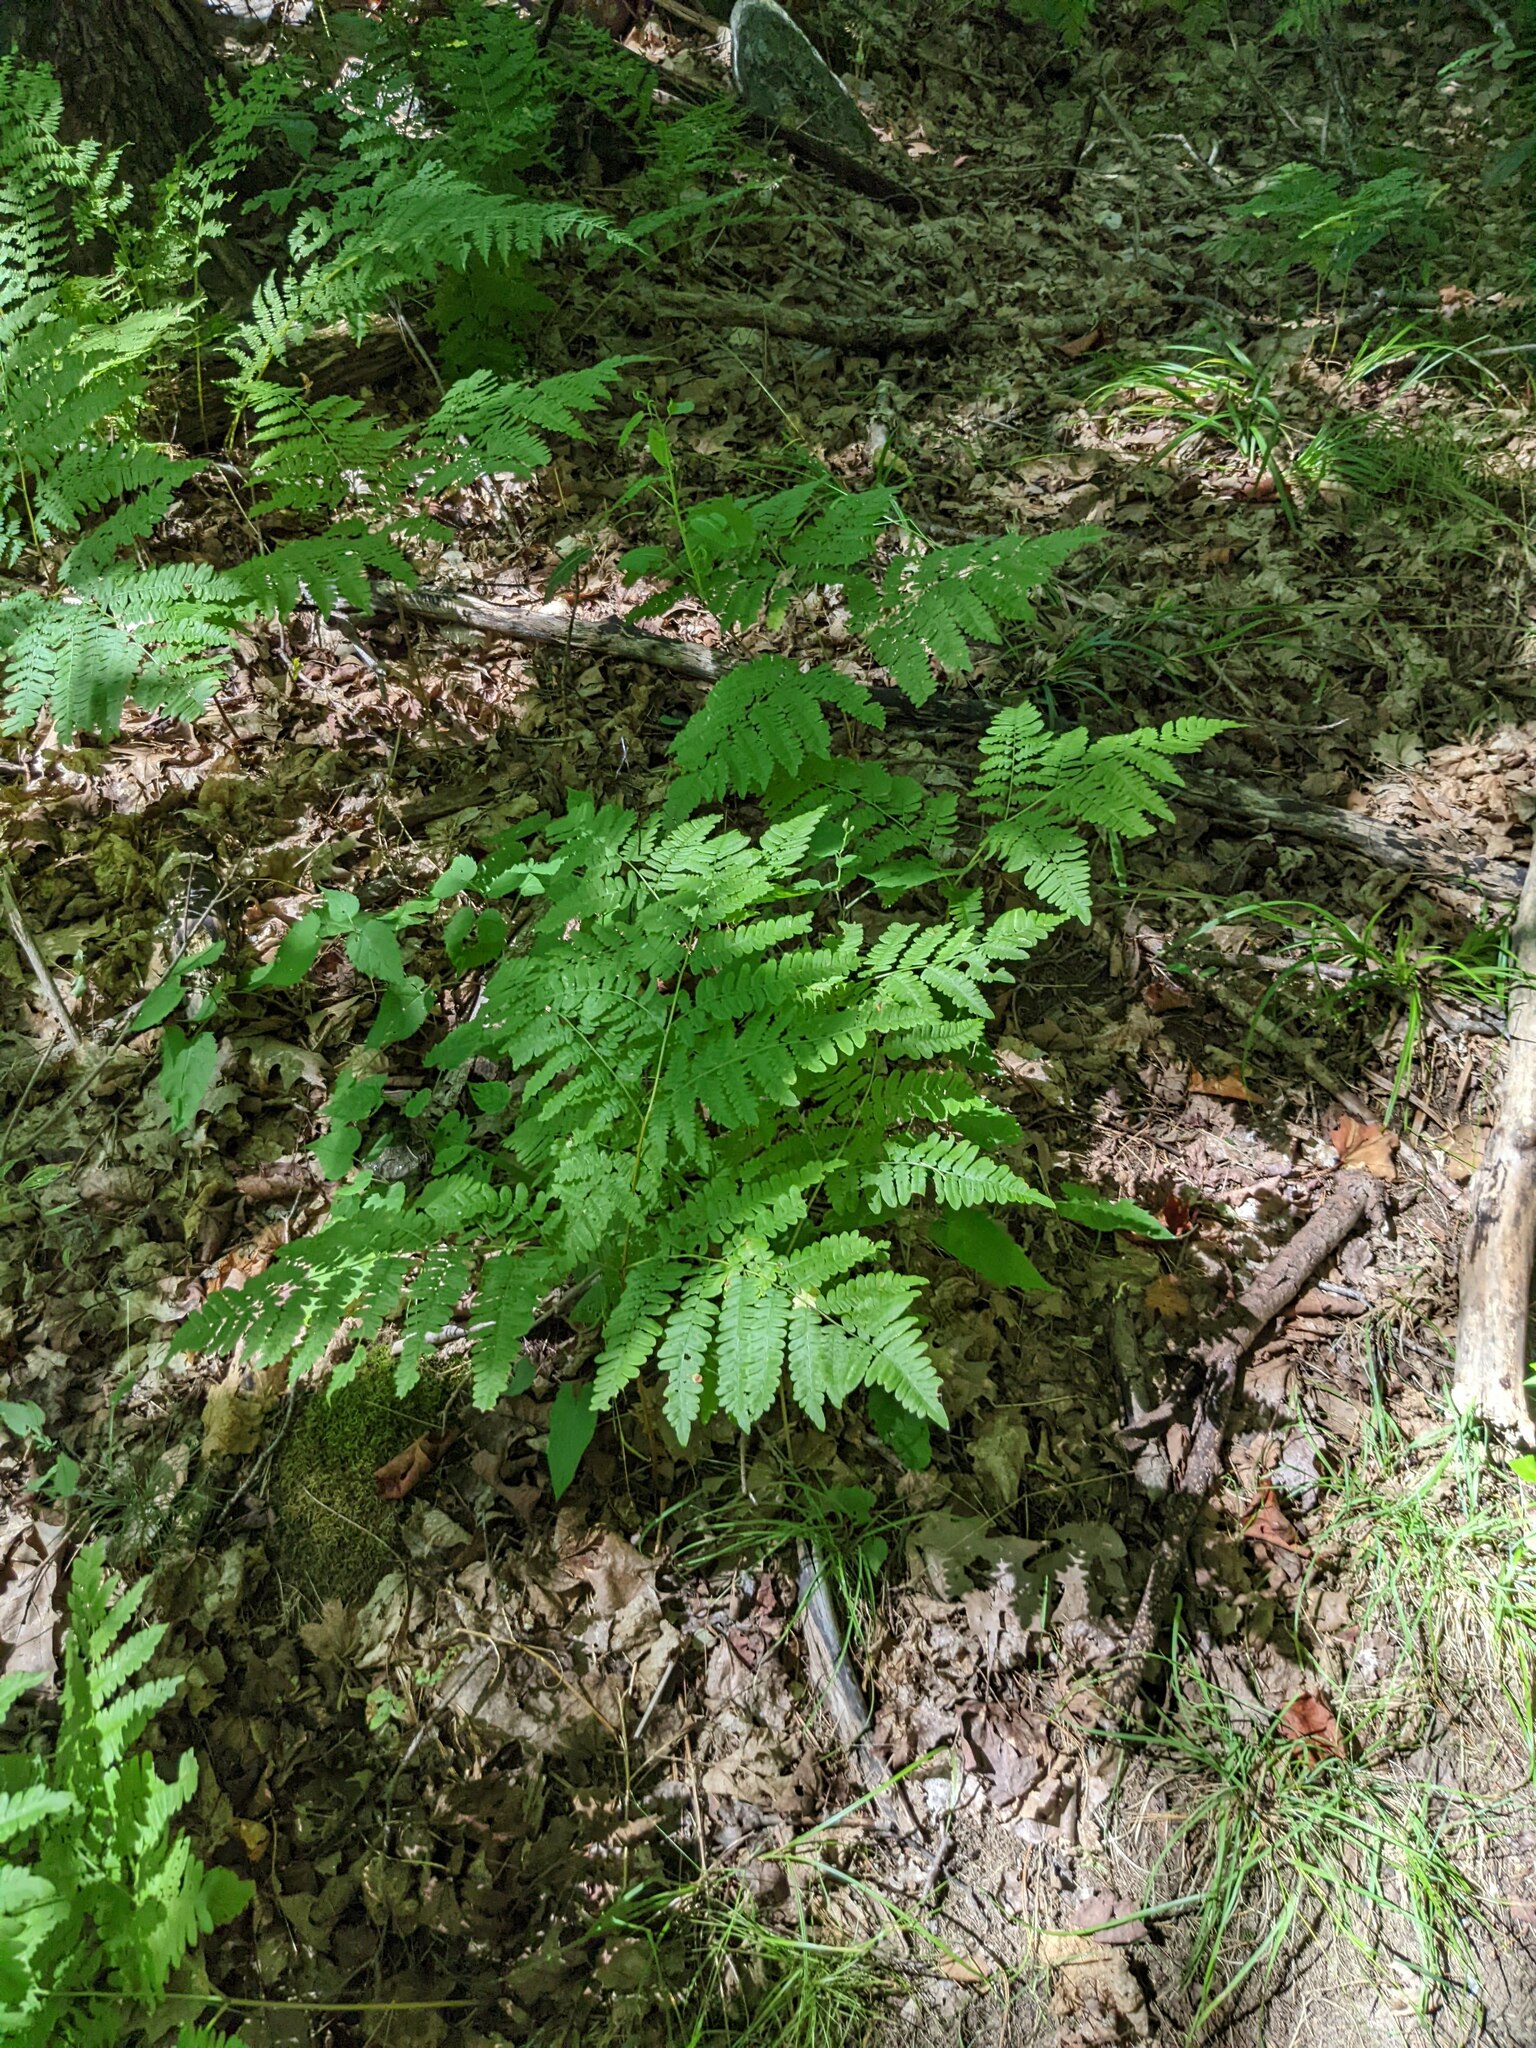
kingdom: Plantae
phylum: Tracheophyta
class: Polypodiopsida
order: Polypodiales
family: Dennstaedtiaceae
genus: Pteridium
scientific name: Pteridium aquilinum
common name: Bracken
